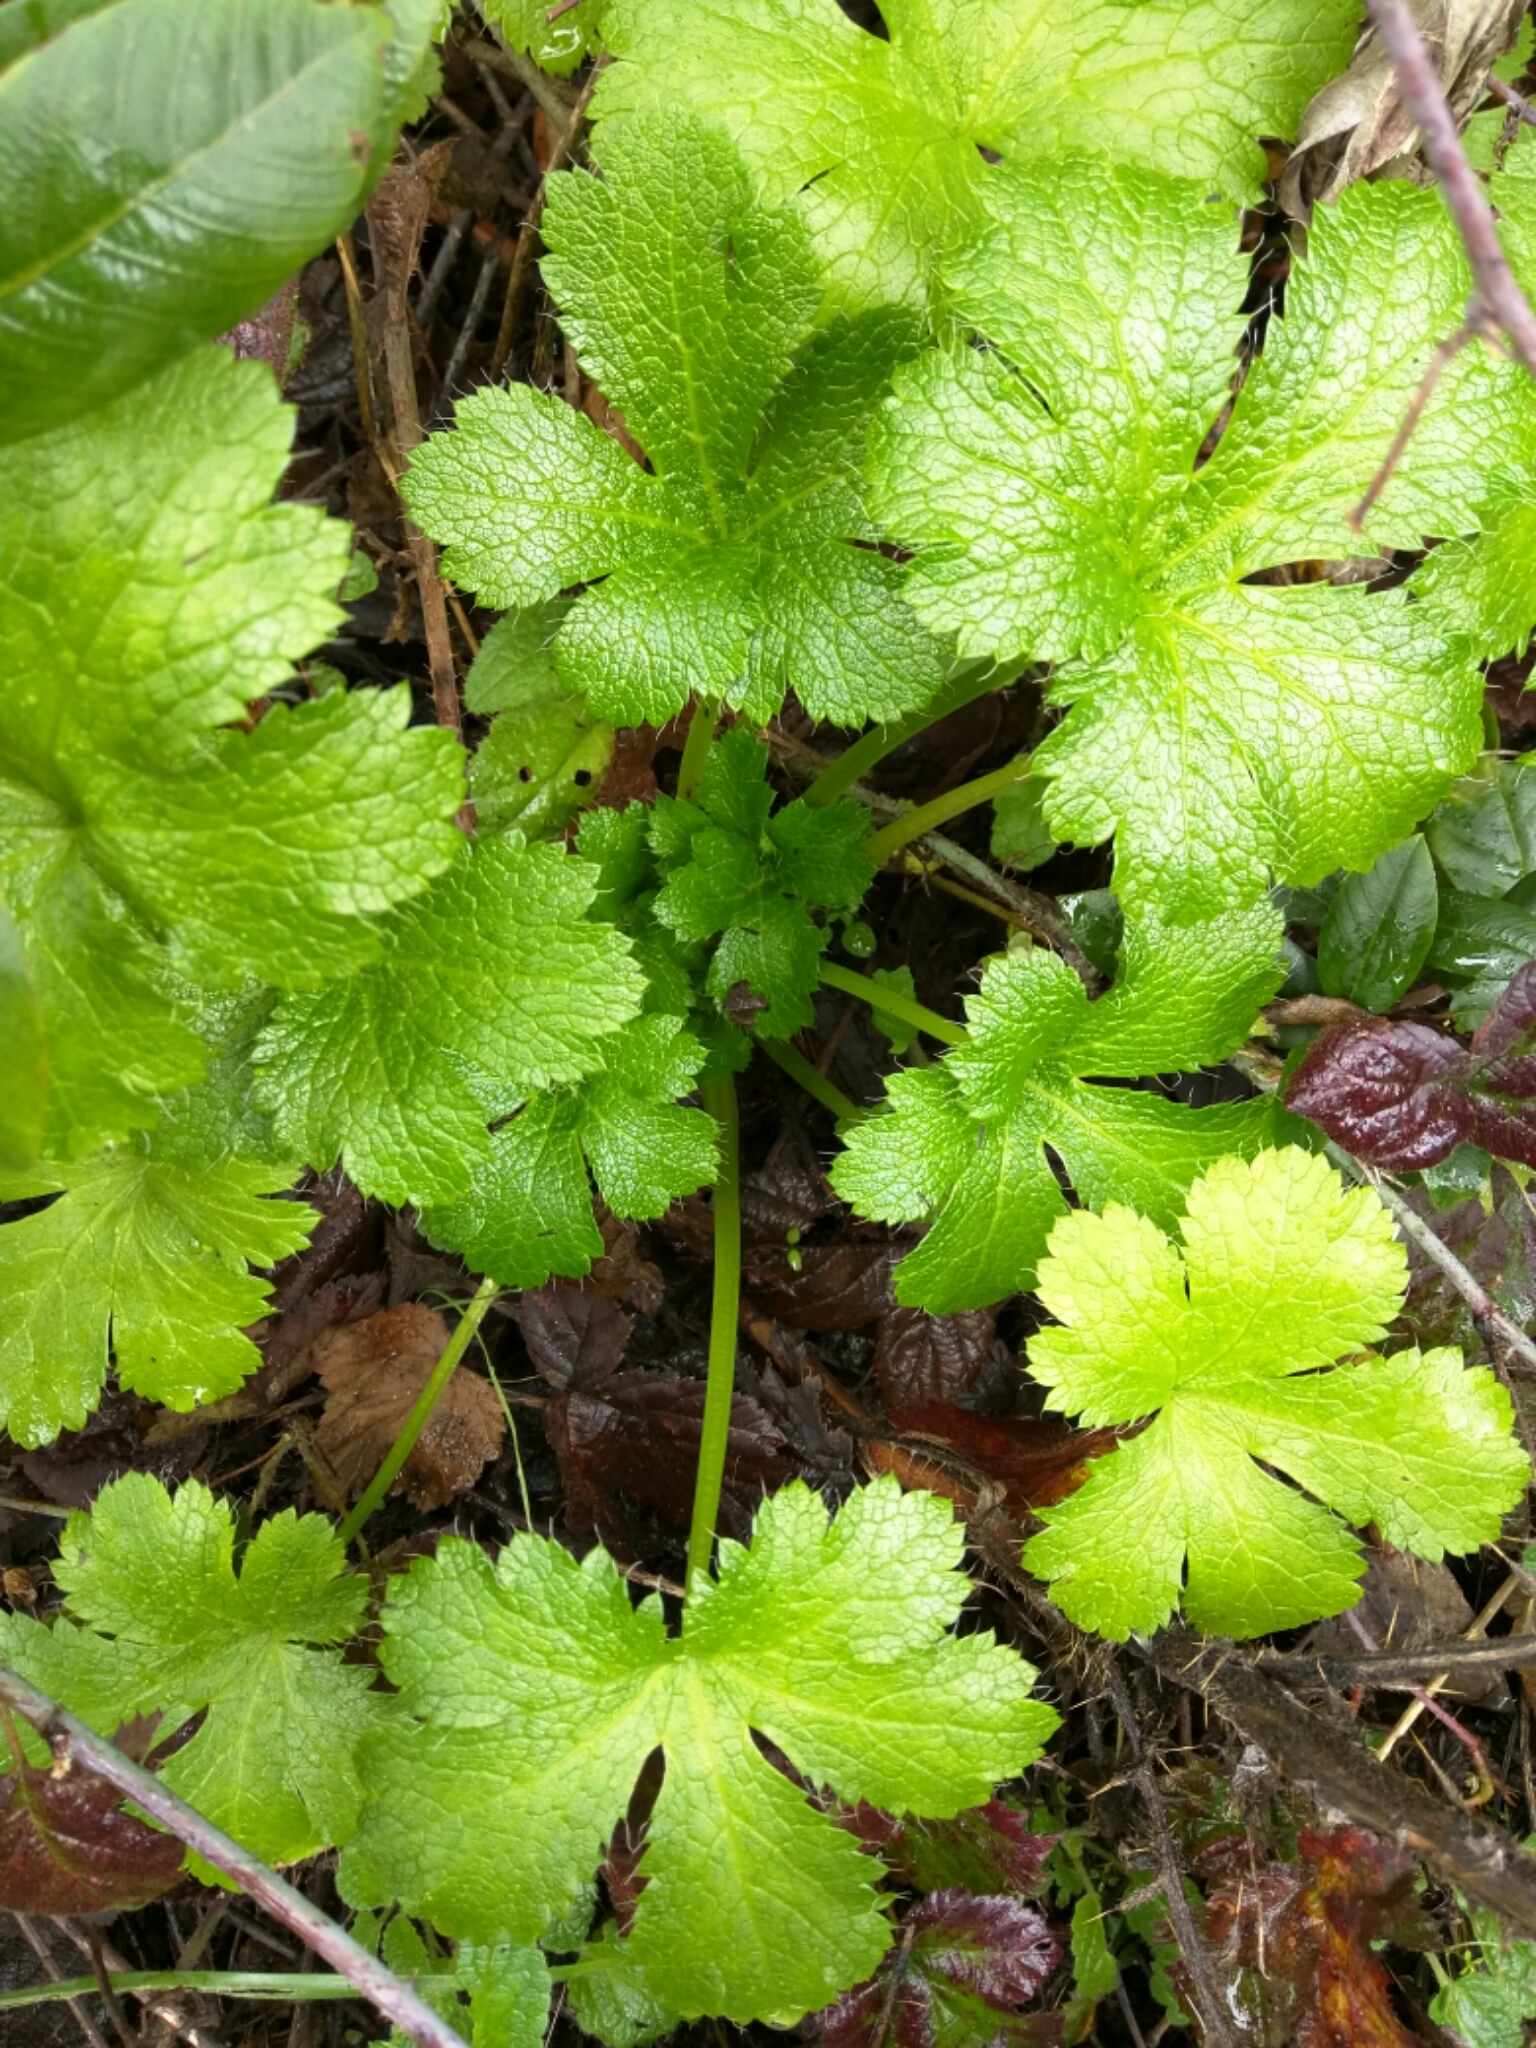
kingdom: Plantae
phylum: Tracheophyta
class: Magnoliopsida
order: Apiales
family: Apiaceae
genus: Sanicula
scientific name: Sanicula crassicaulis
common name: Western snakeroot
